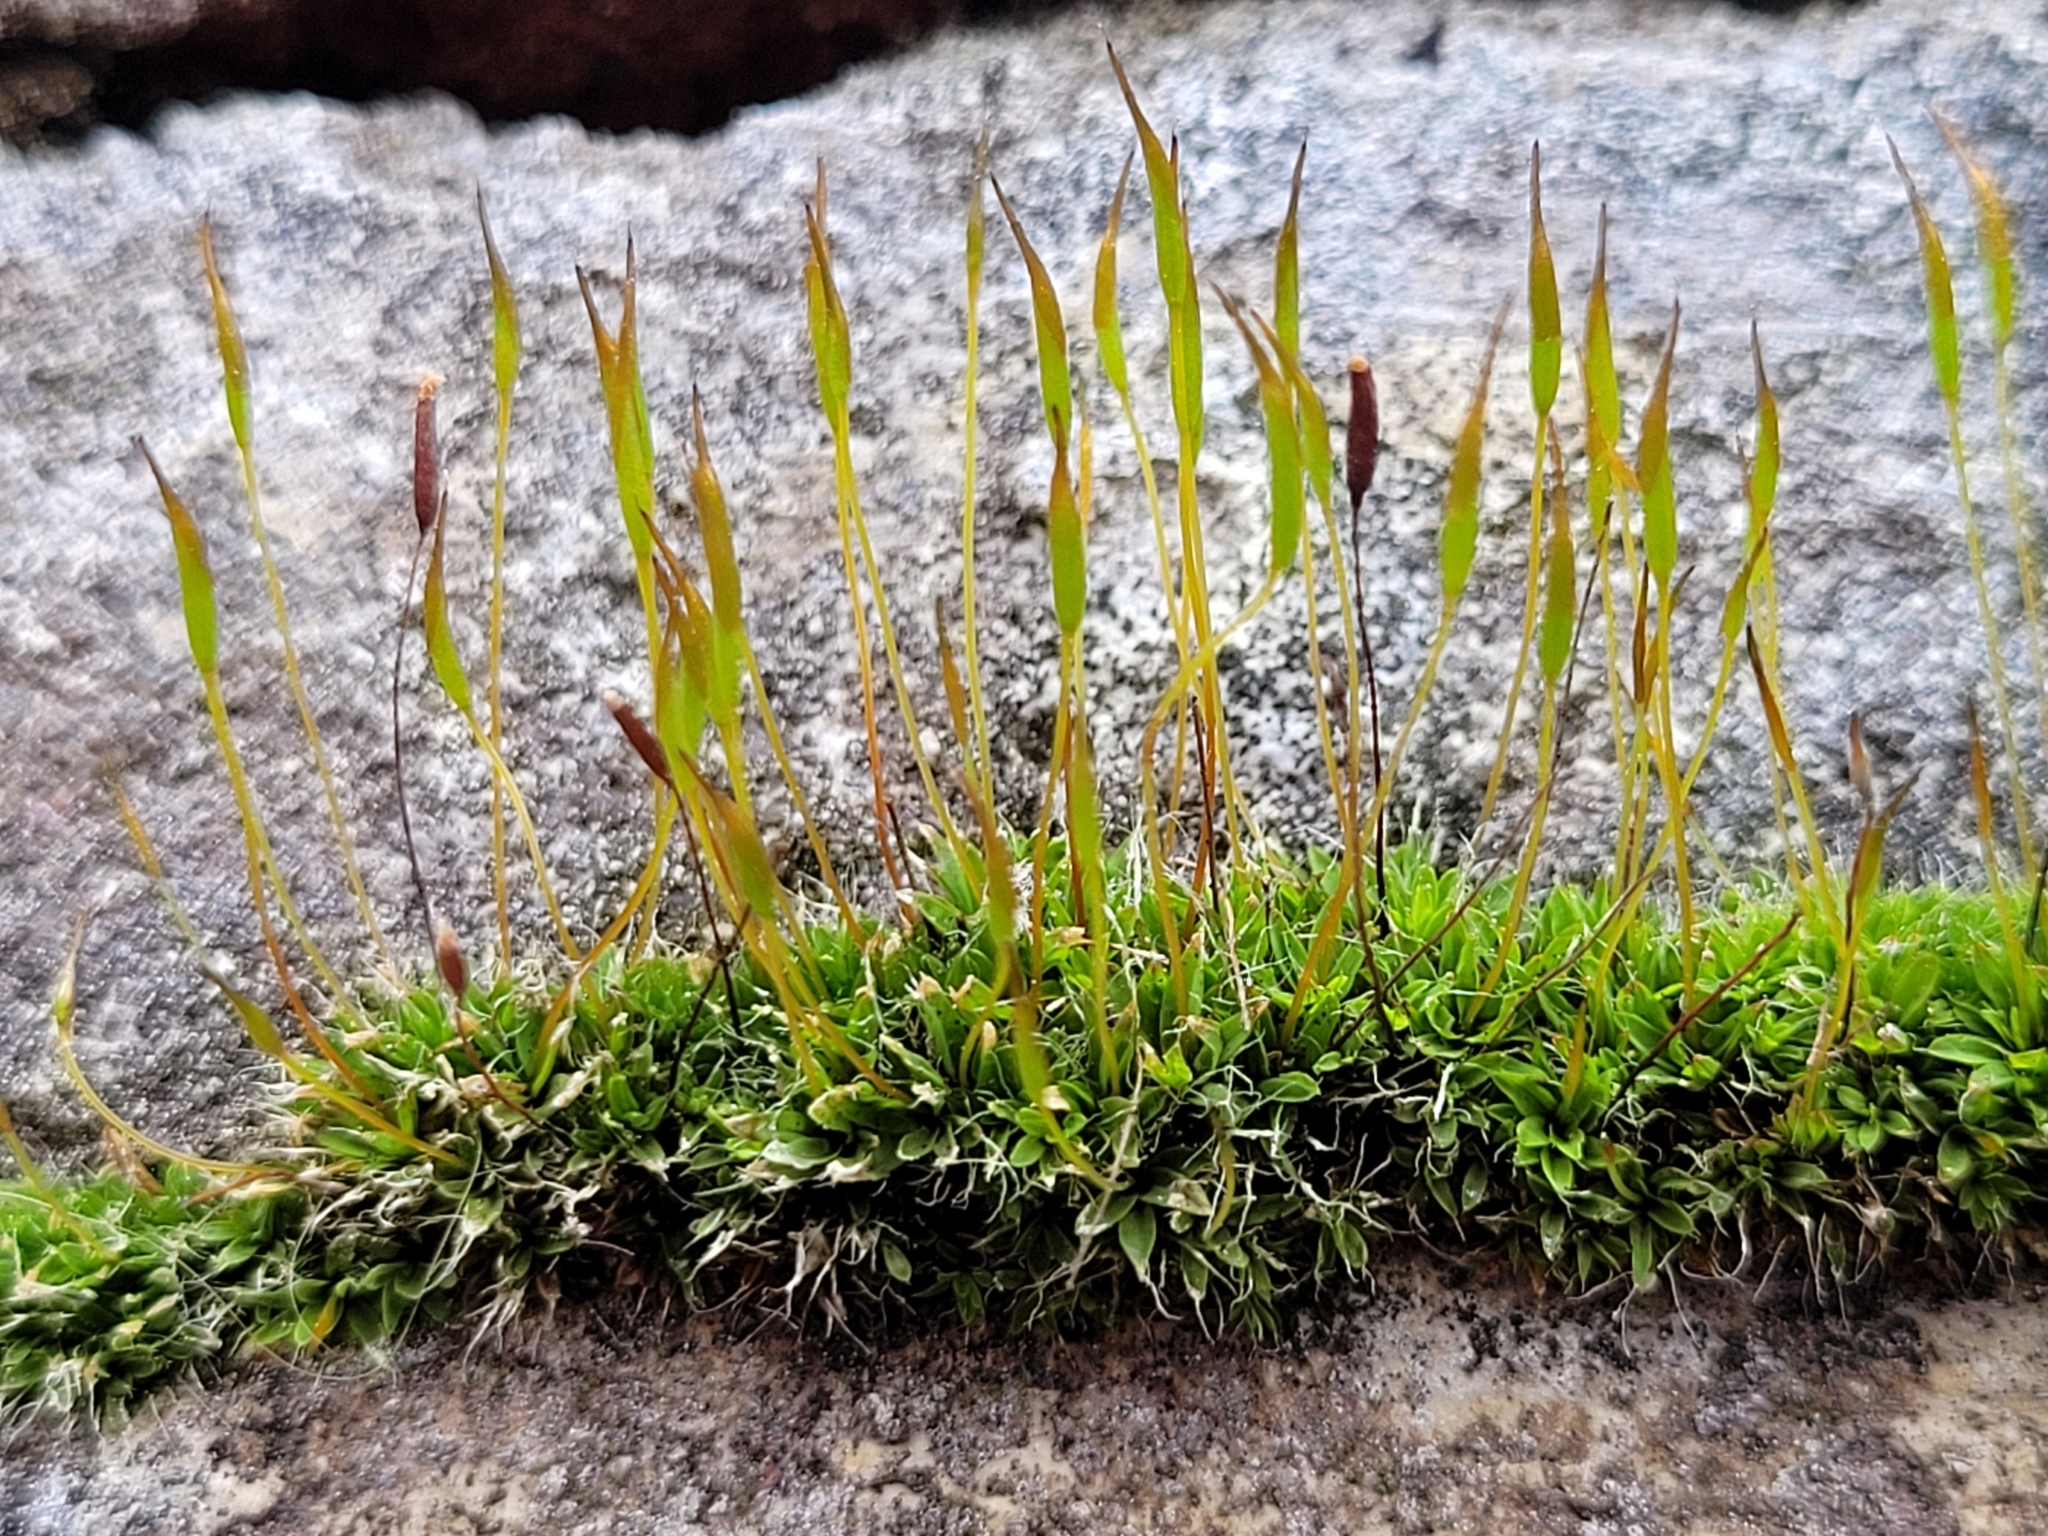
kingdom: Plantae
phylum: Bryophyta
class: Bryopsida
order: Pottiales
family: Pottiaceae
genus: Tortula
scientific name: Tortula muralis
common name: Wall screw-moss
